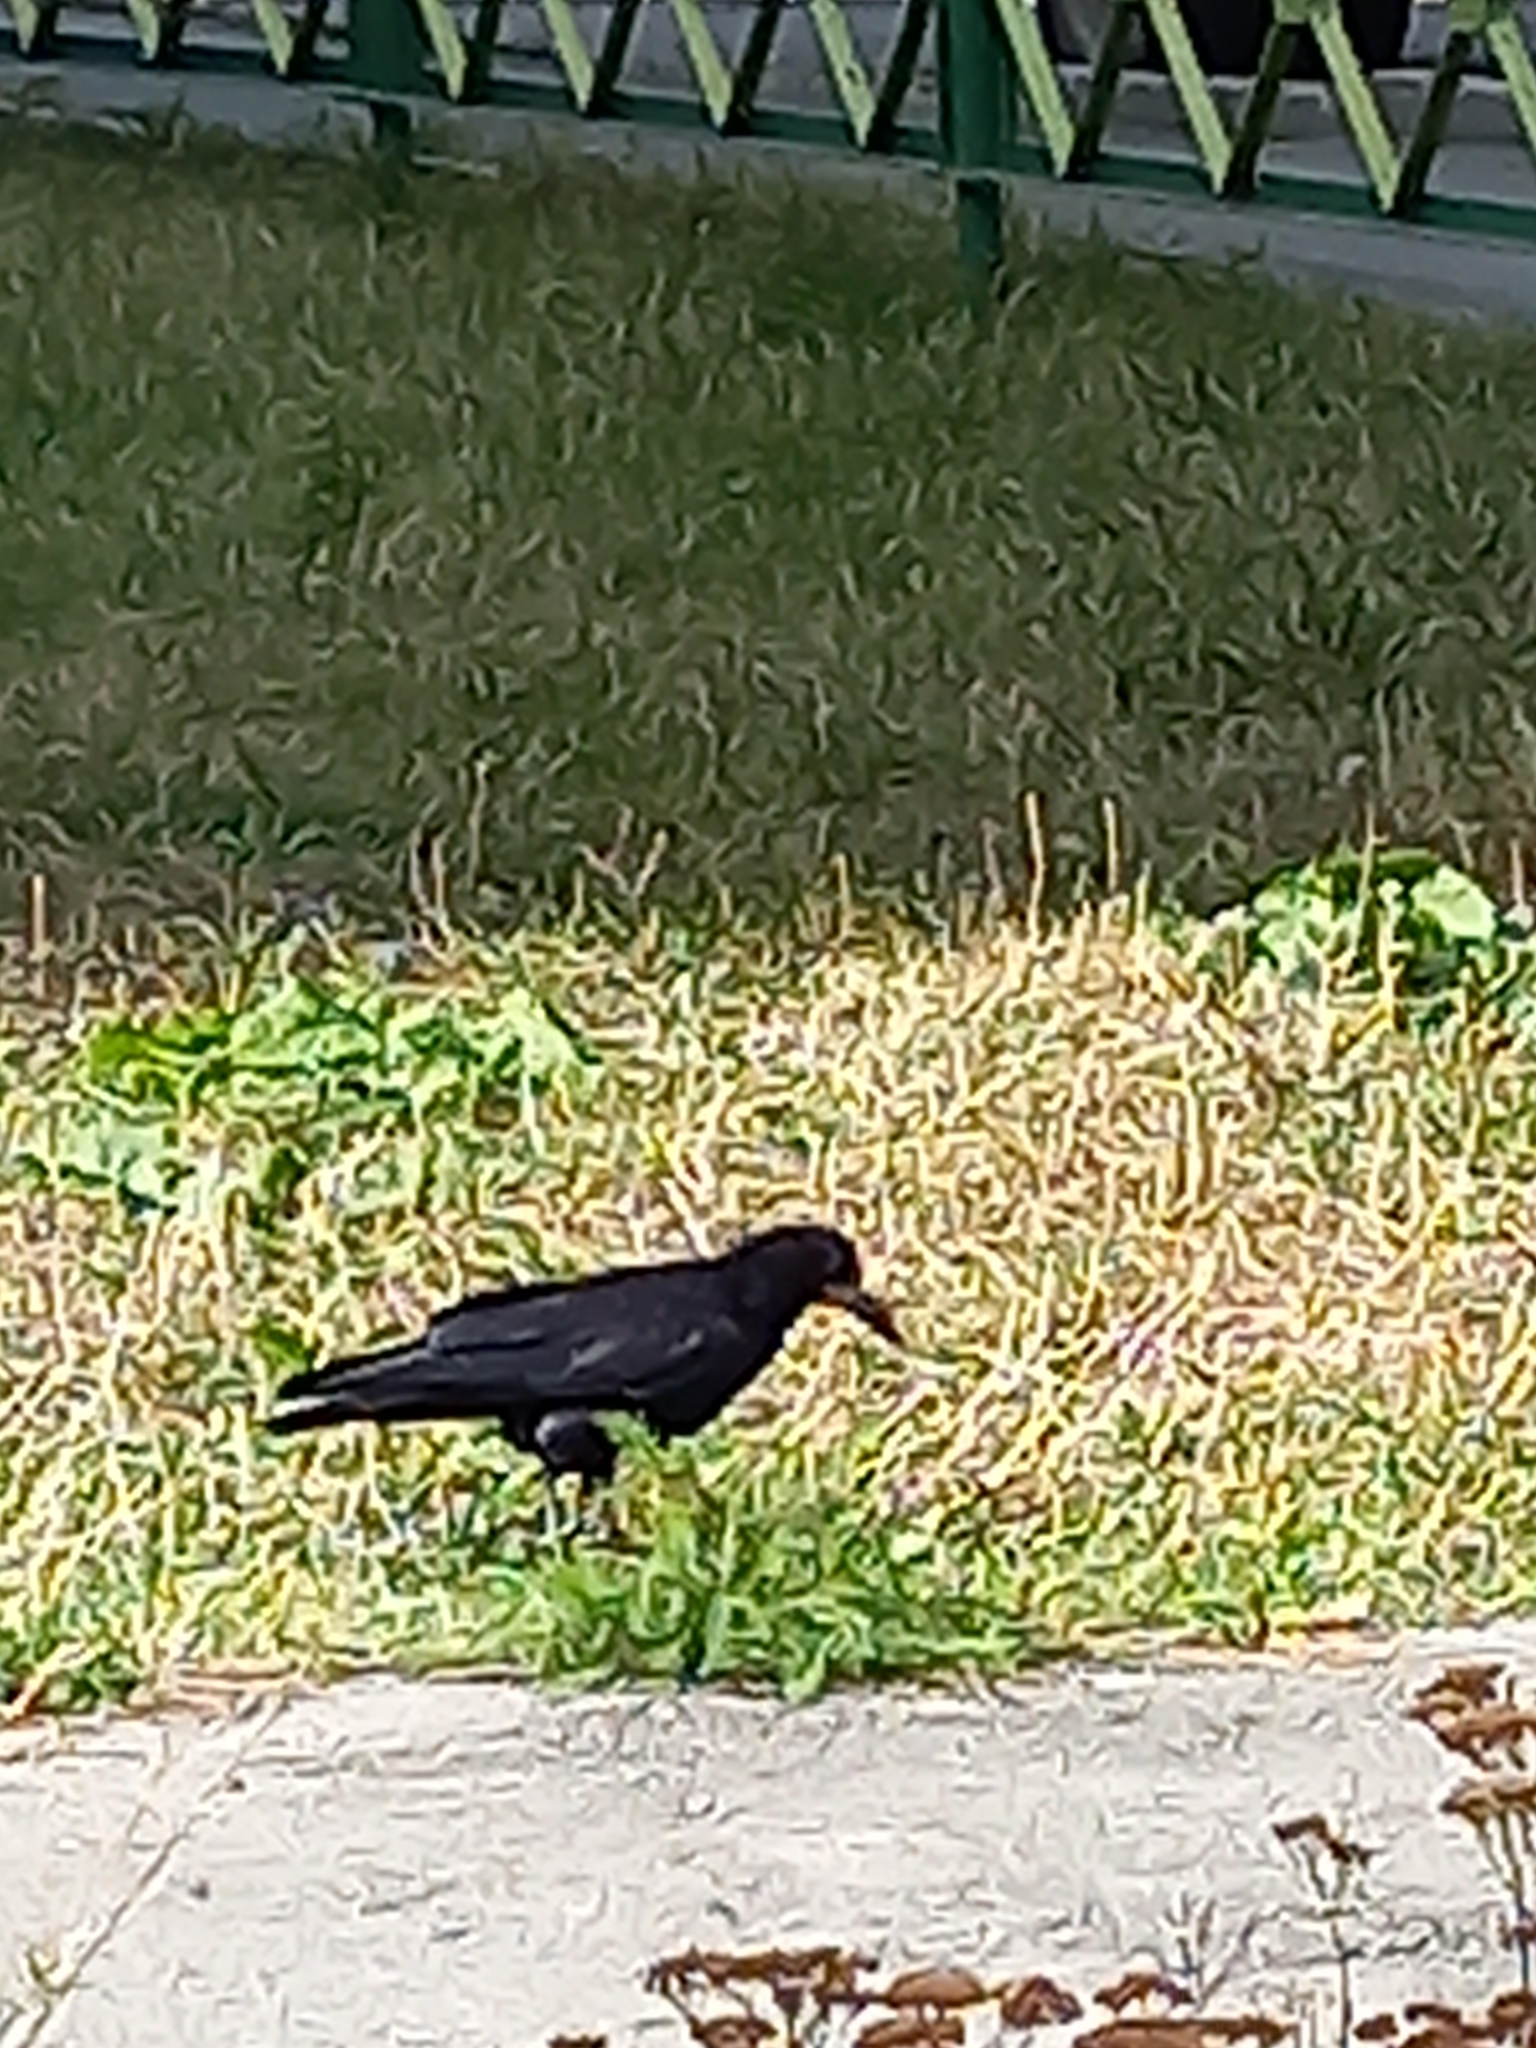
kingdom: Animalia
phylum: Chordata
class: Aves
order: Passeriformes
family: Corvidae
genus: Corvus
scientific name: Corvus frugilegus
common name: Rook
